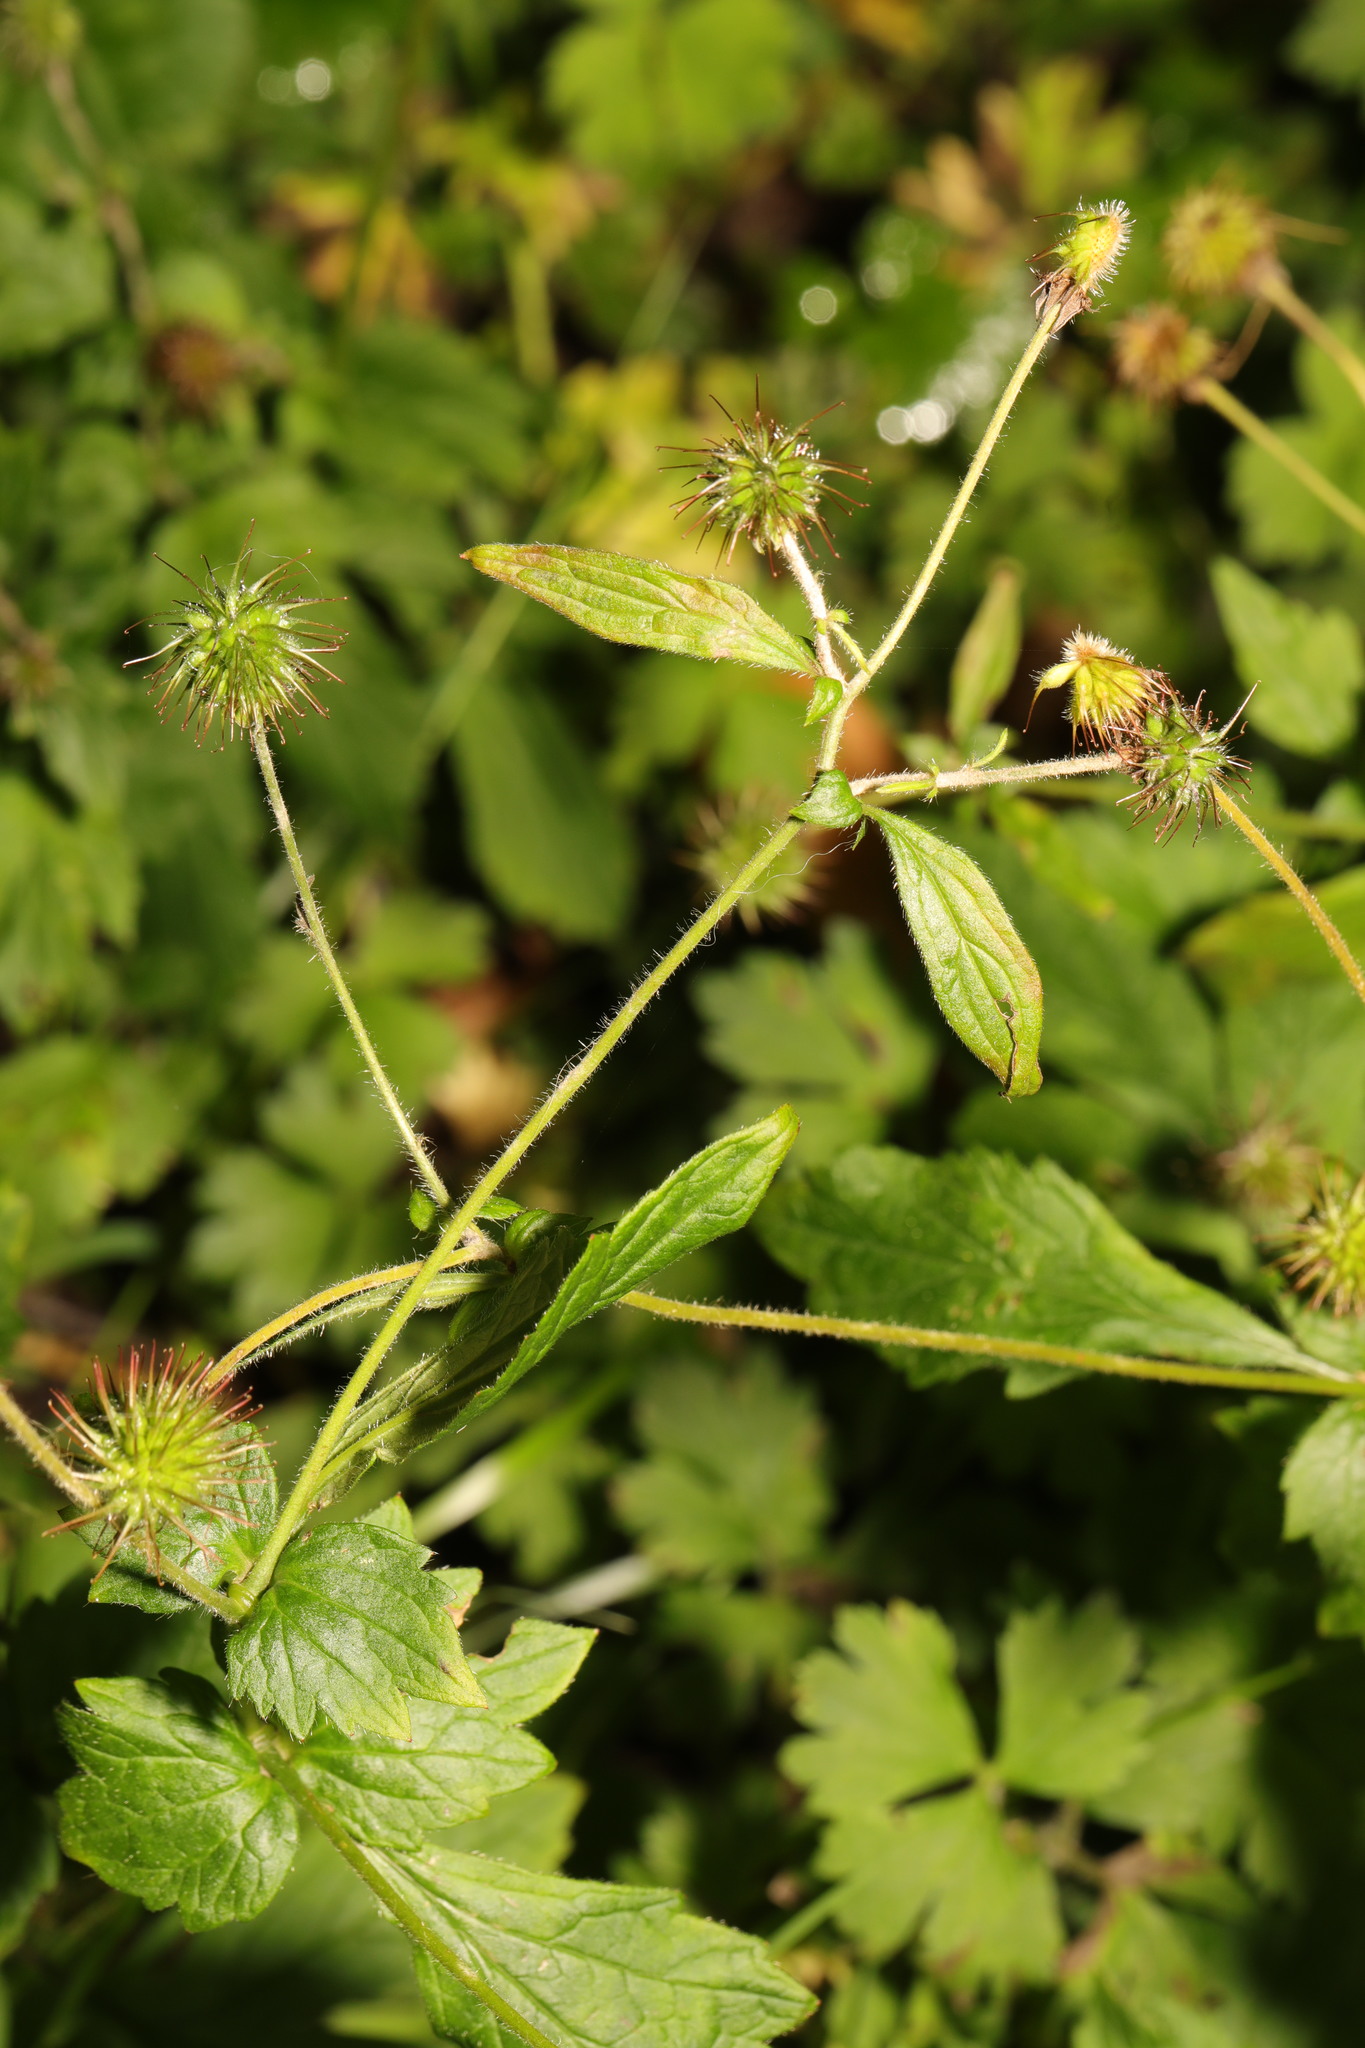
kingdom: Plantae
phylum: Tracheophyta
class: Magnoliopsida
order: Rosales
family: Rosaceae
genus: Geum
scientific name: Geum urbanum
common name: Wood avens
